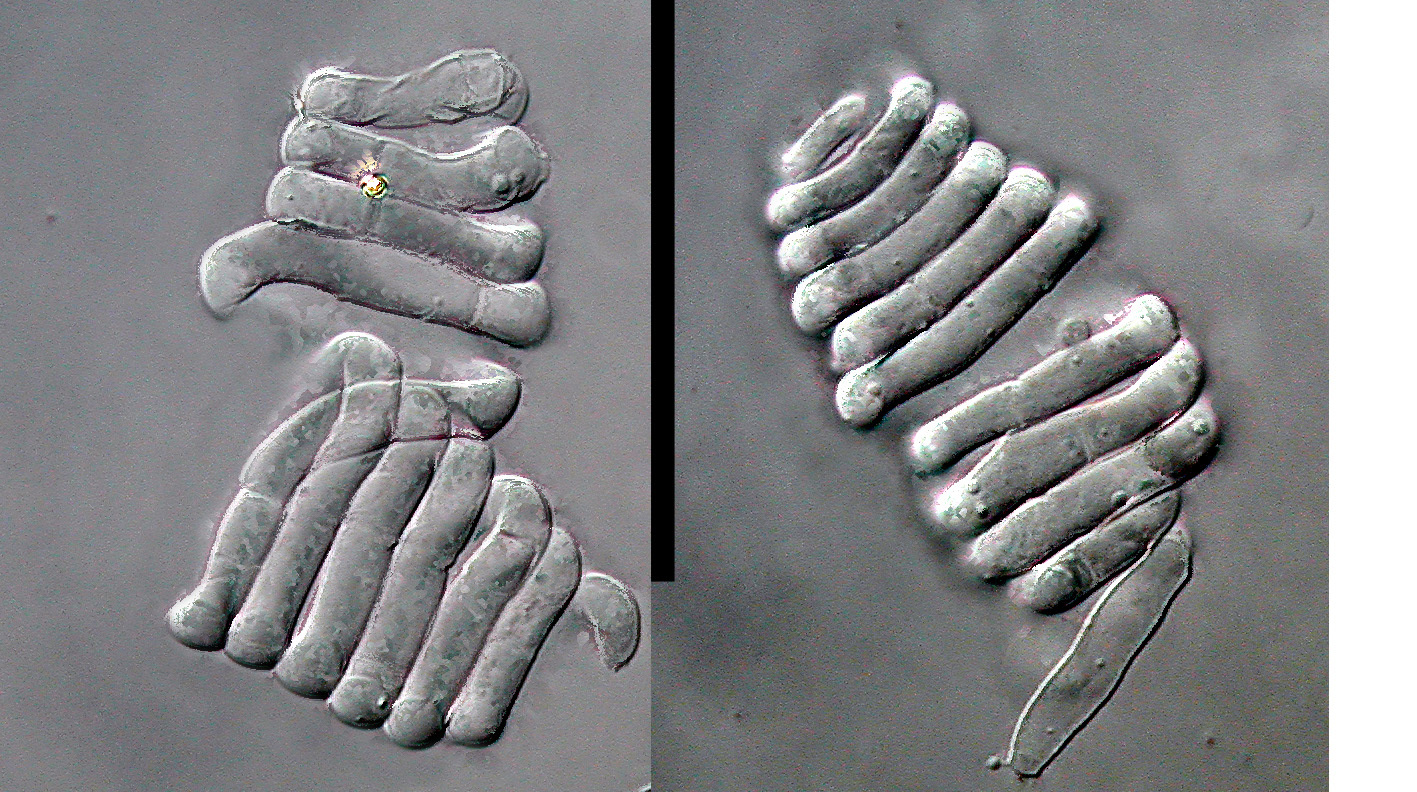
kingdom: Fungi
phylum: Ascomycota
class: Leotiomycetes
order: Helotiales
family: Rutstroemiaceae
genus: Lambertella
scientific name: Lambertella tubulosa
